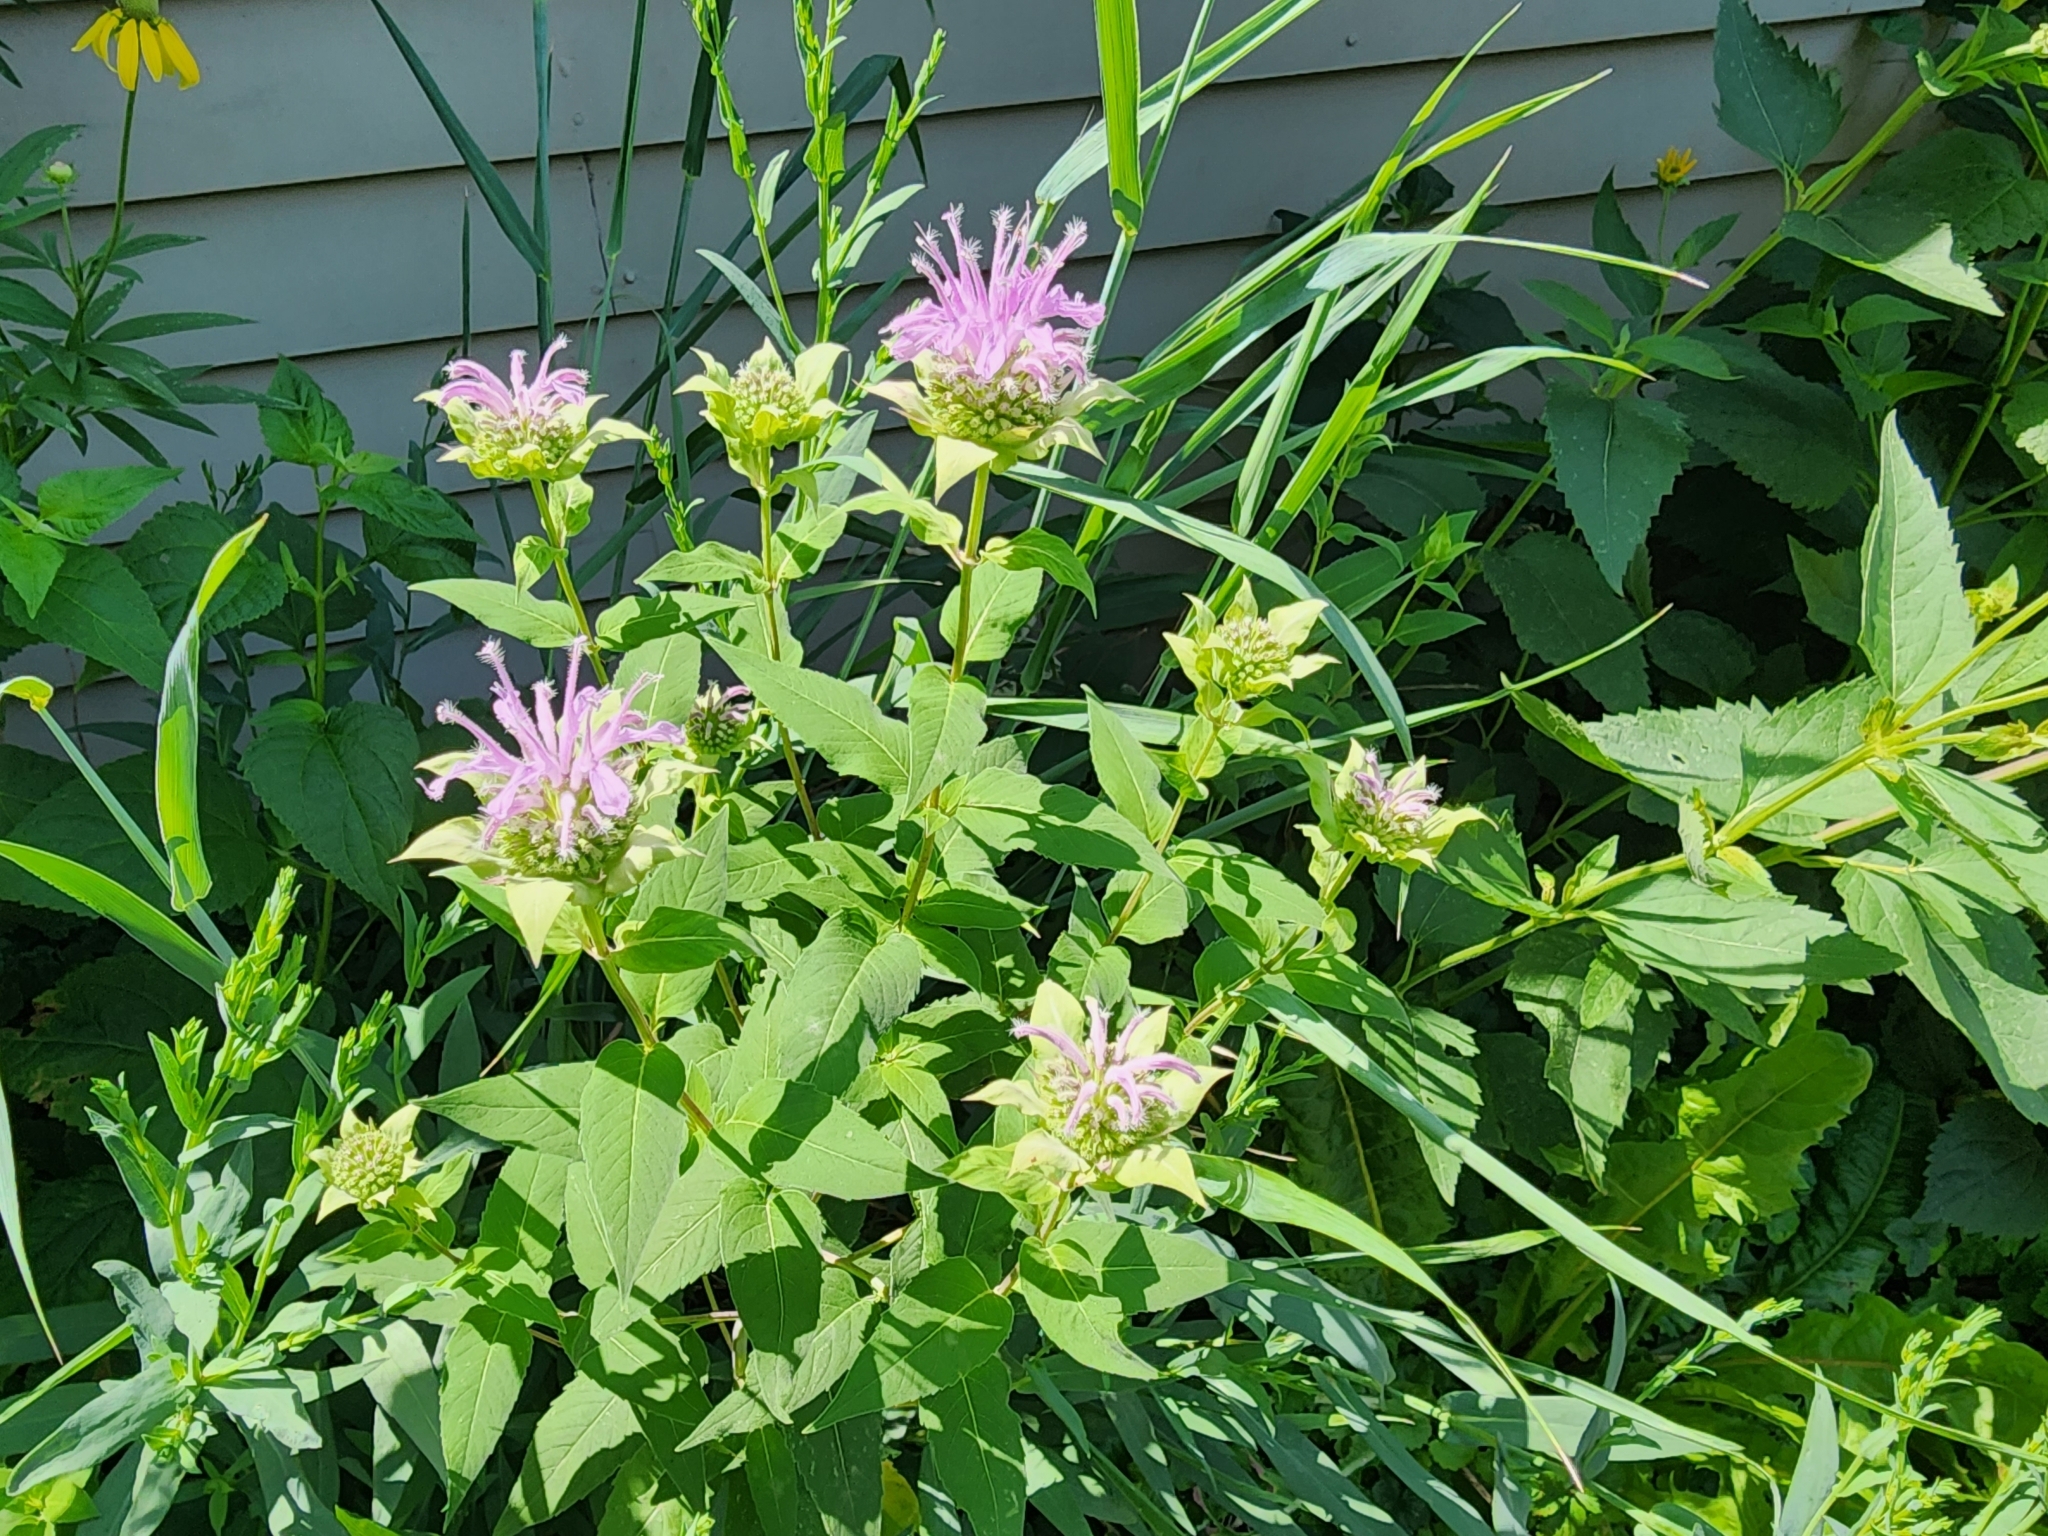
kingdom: Plantae
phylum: Tracheophyta
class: Magnoliopsida
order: Lamiales
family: Lamiaceae
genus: Monarda
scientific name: Monarda fistulosa
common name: Purple beebalm
